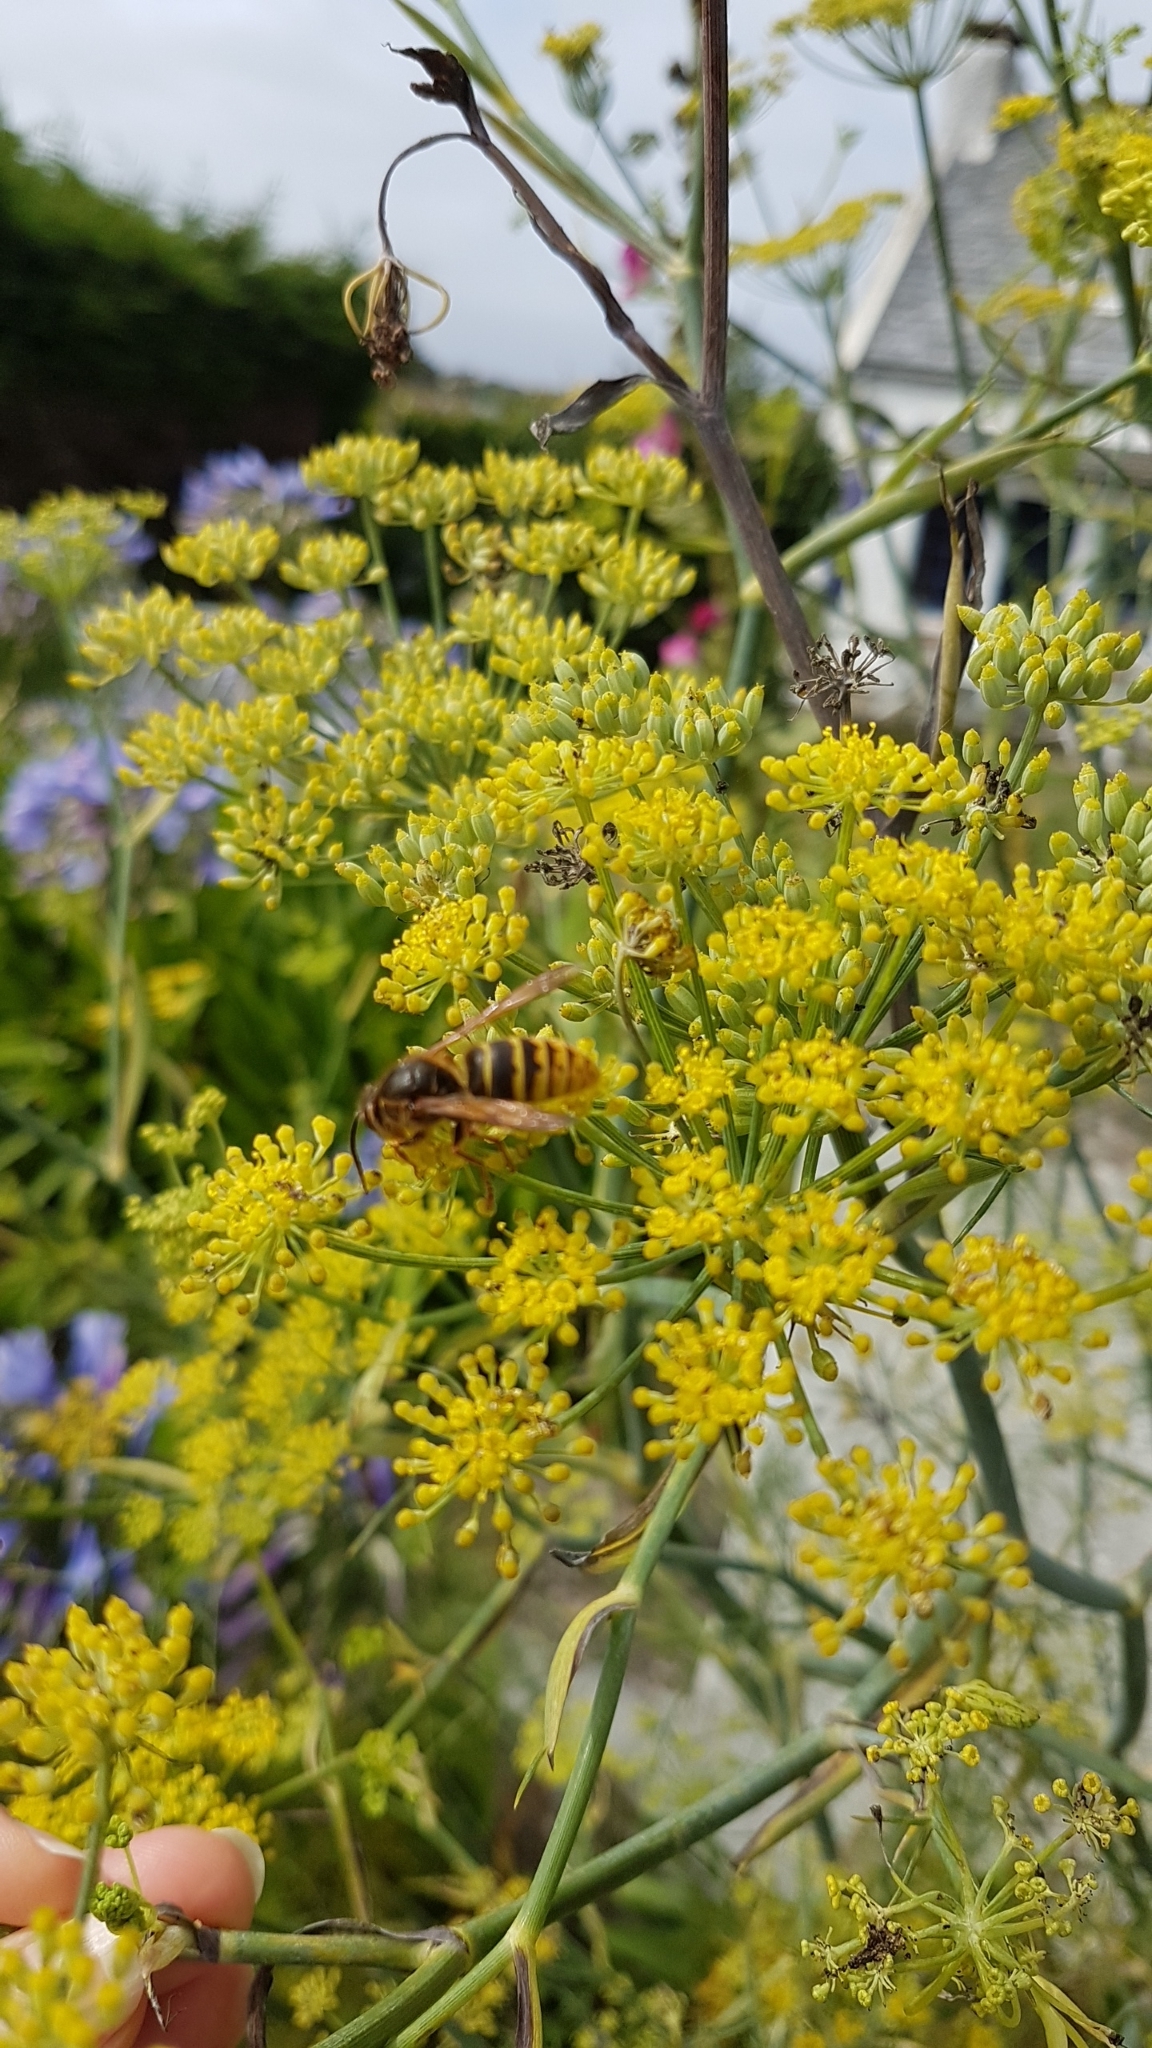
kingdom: Plantae
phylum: Tracheophyta
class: Magnoliopsida
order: Apiales
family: Apiaceae
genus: Foeniculum
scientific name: Foeniculum vulgare
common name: Fennel
